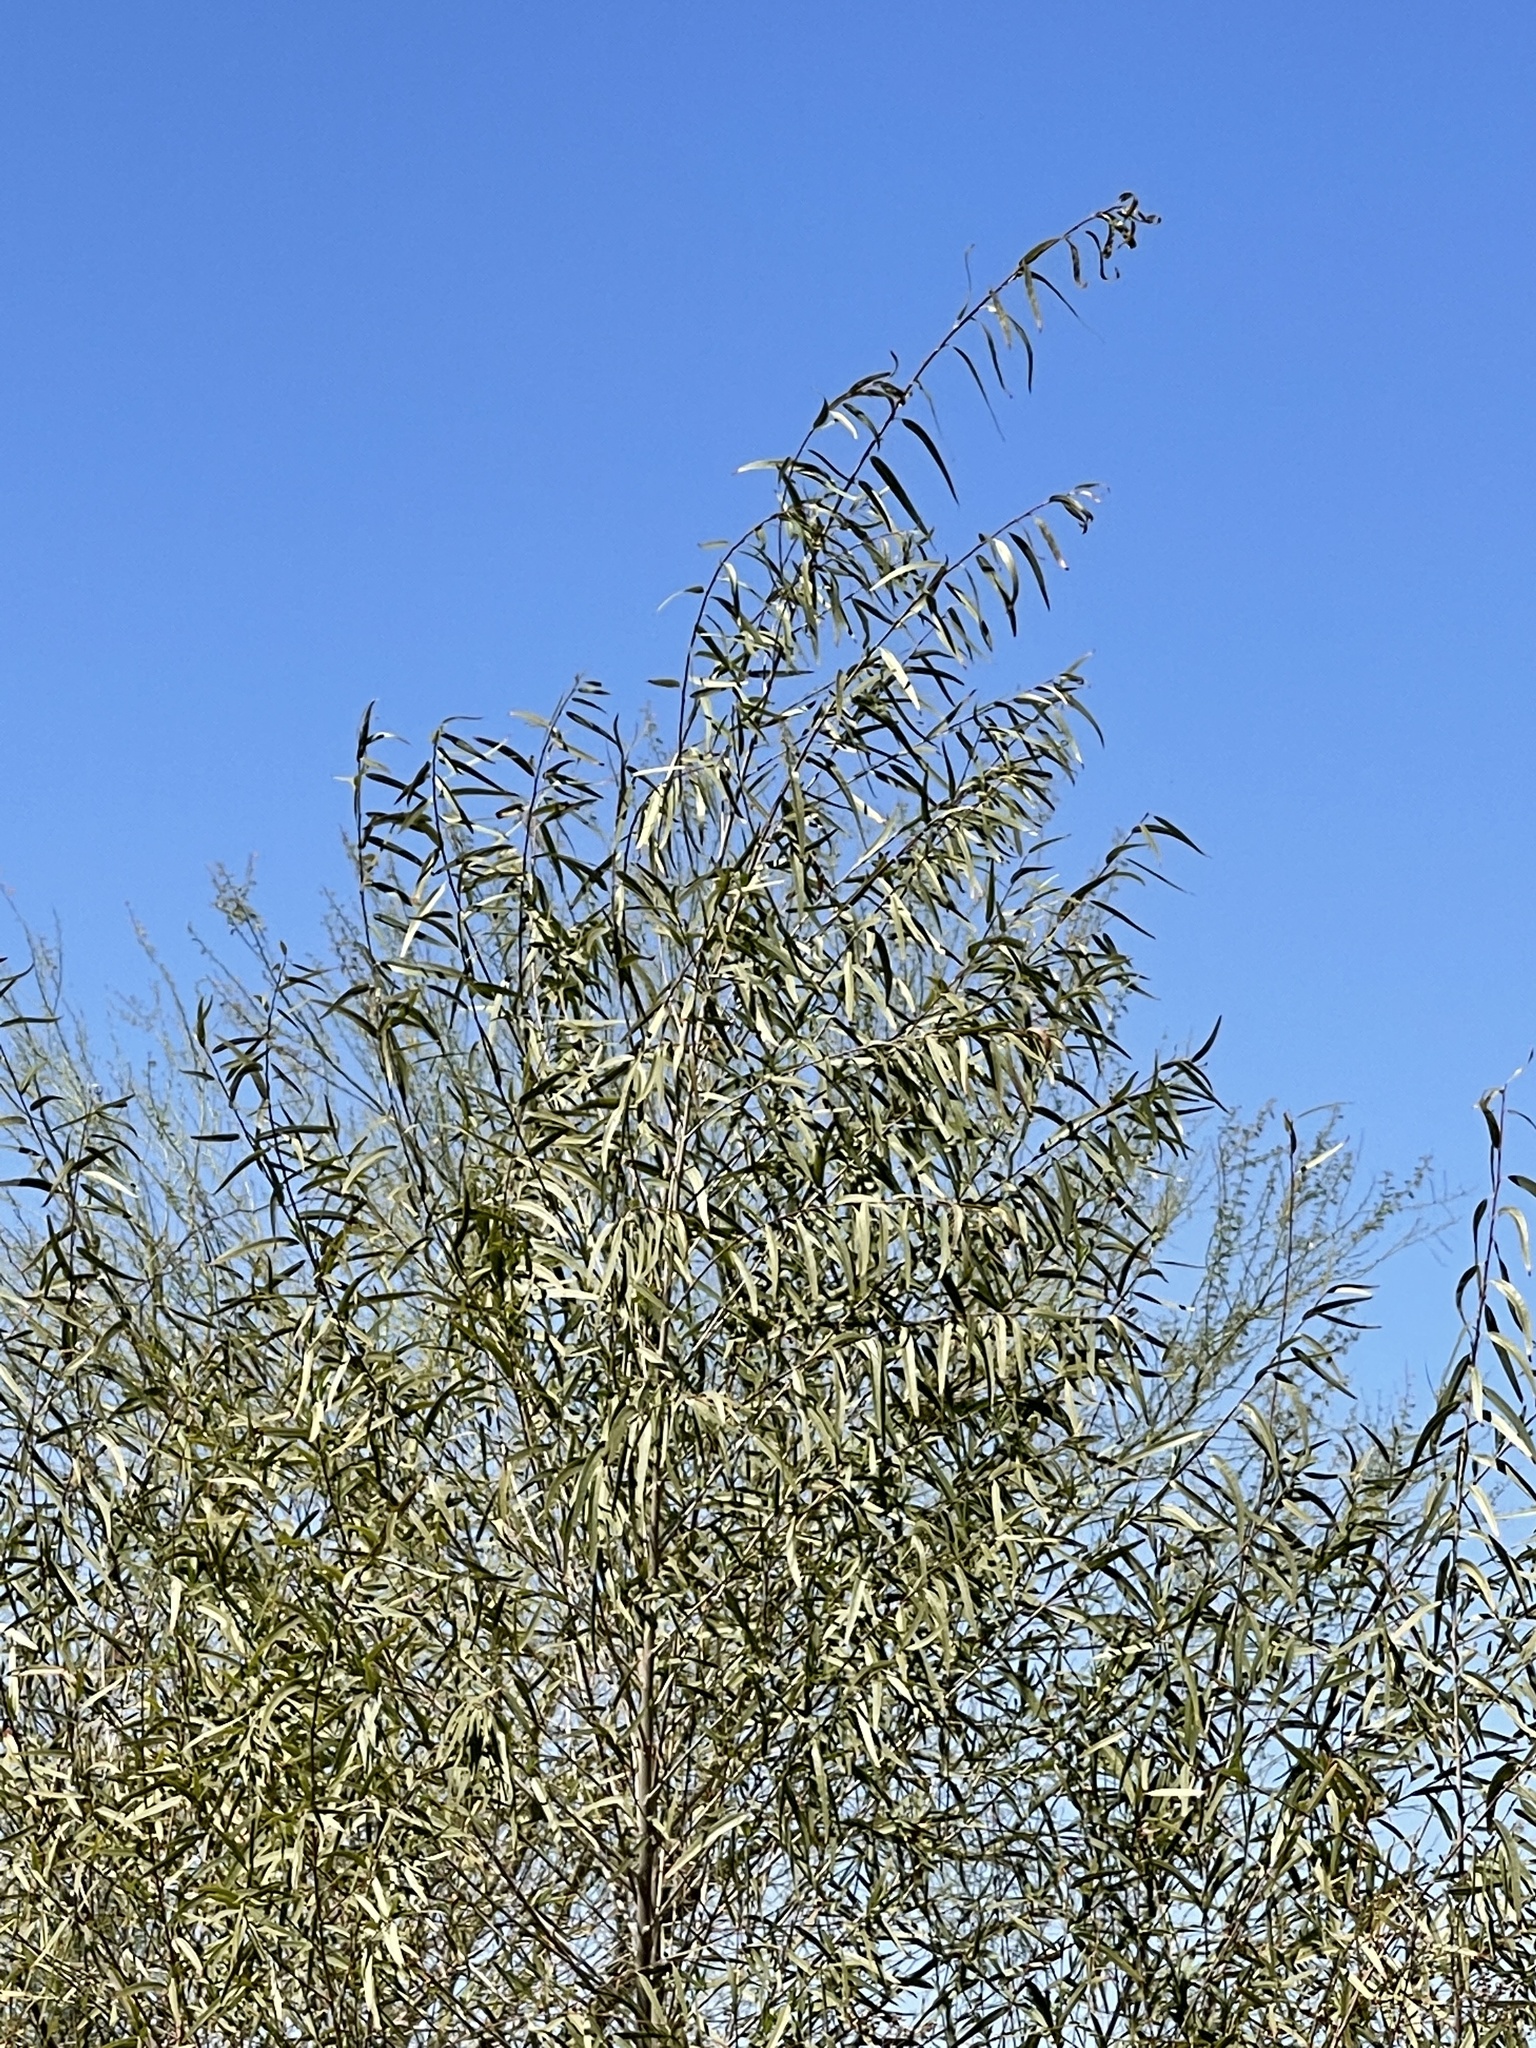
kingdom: Plantae
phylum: Tracheophyta
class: Magnoliopsida
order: Malpighiales
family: Salicaceae
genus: Salix
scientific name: Salix gooddingii
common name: Goodding's willow
